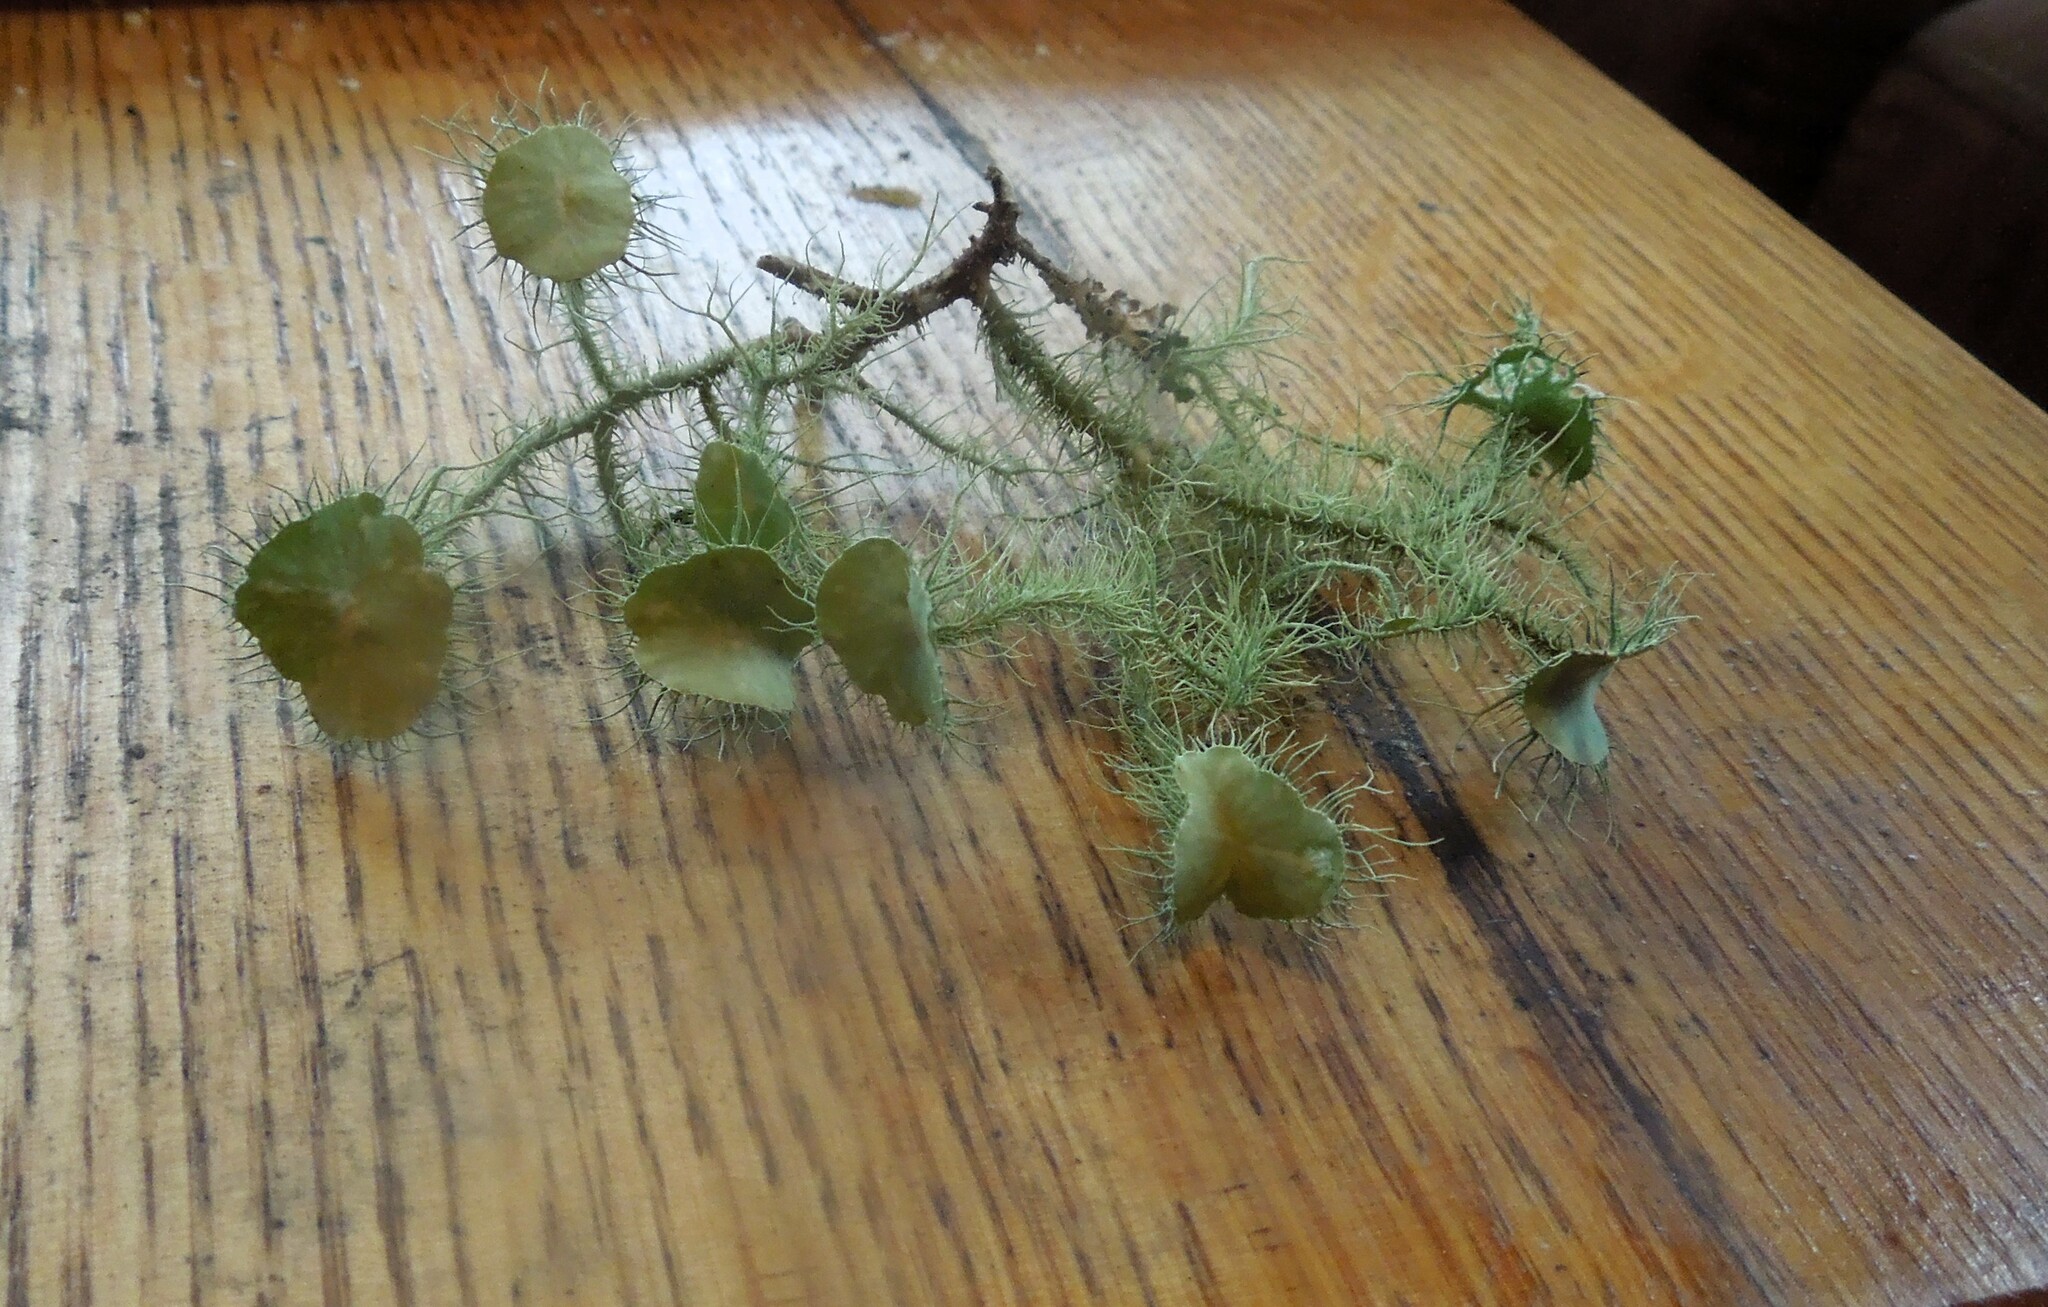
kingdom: Fungi
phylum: Ascomycota
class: Lecanoromycetes
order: Lecanorales
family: Parmeliaceae
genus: Usnea
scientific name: Usnea strigosa
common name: Bushy beard lichen
